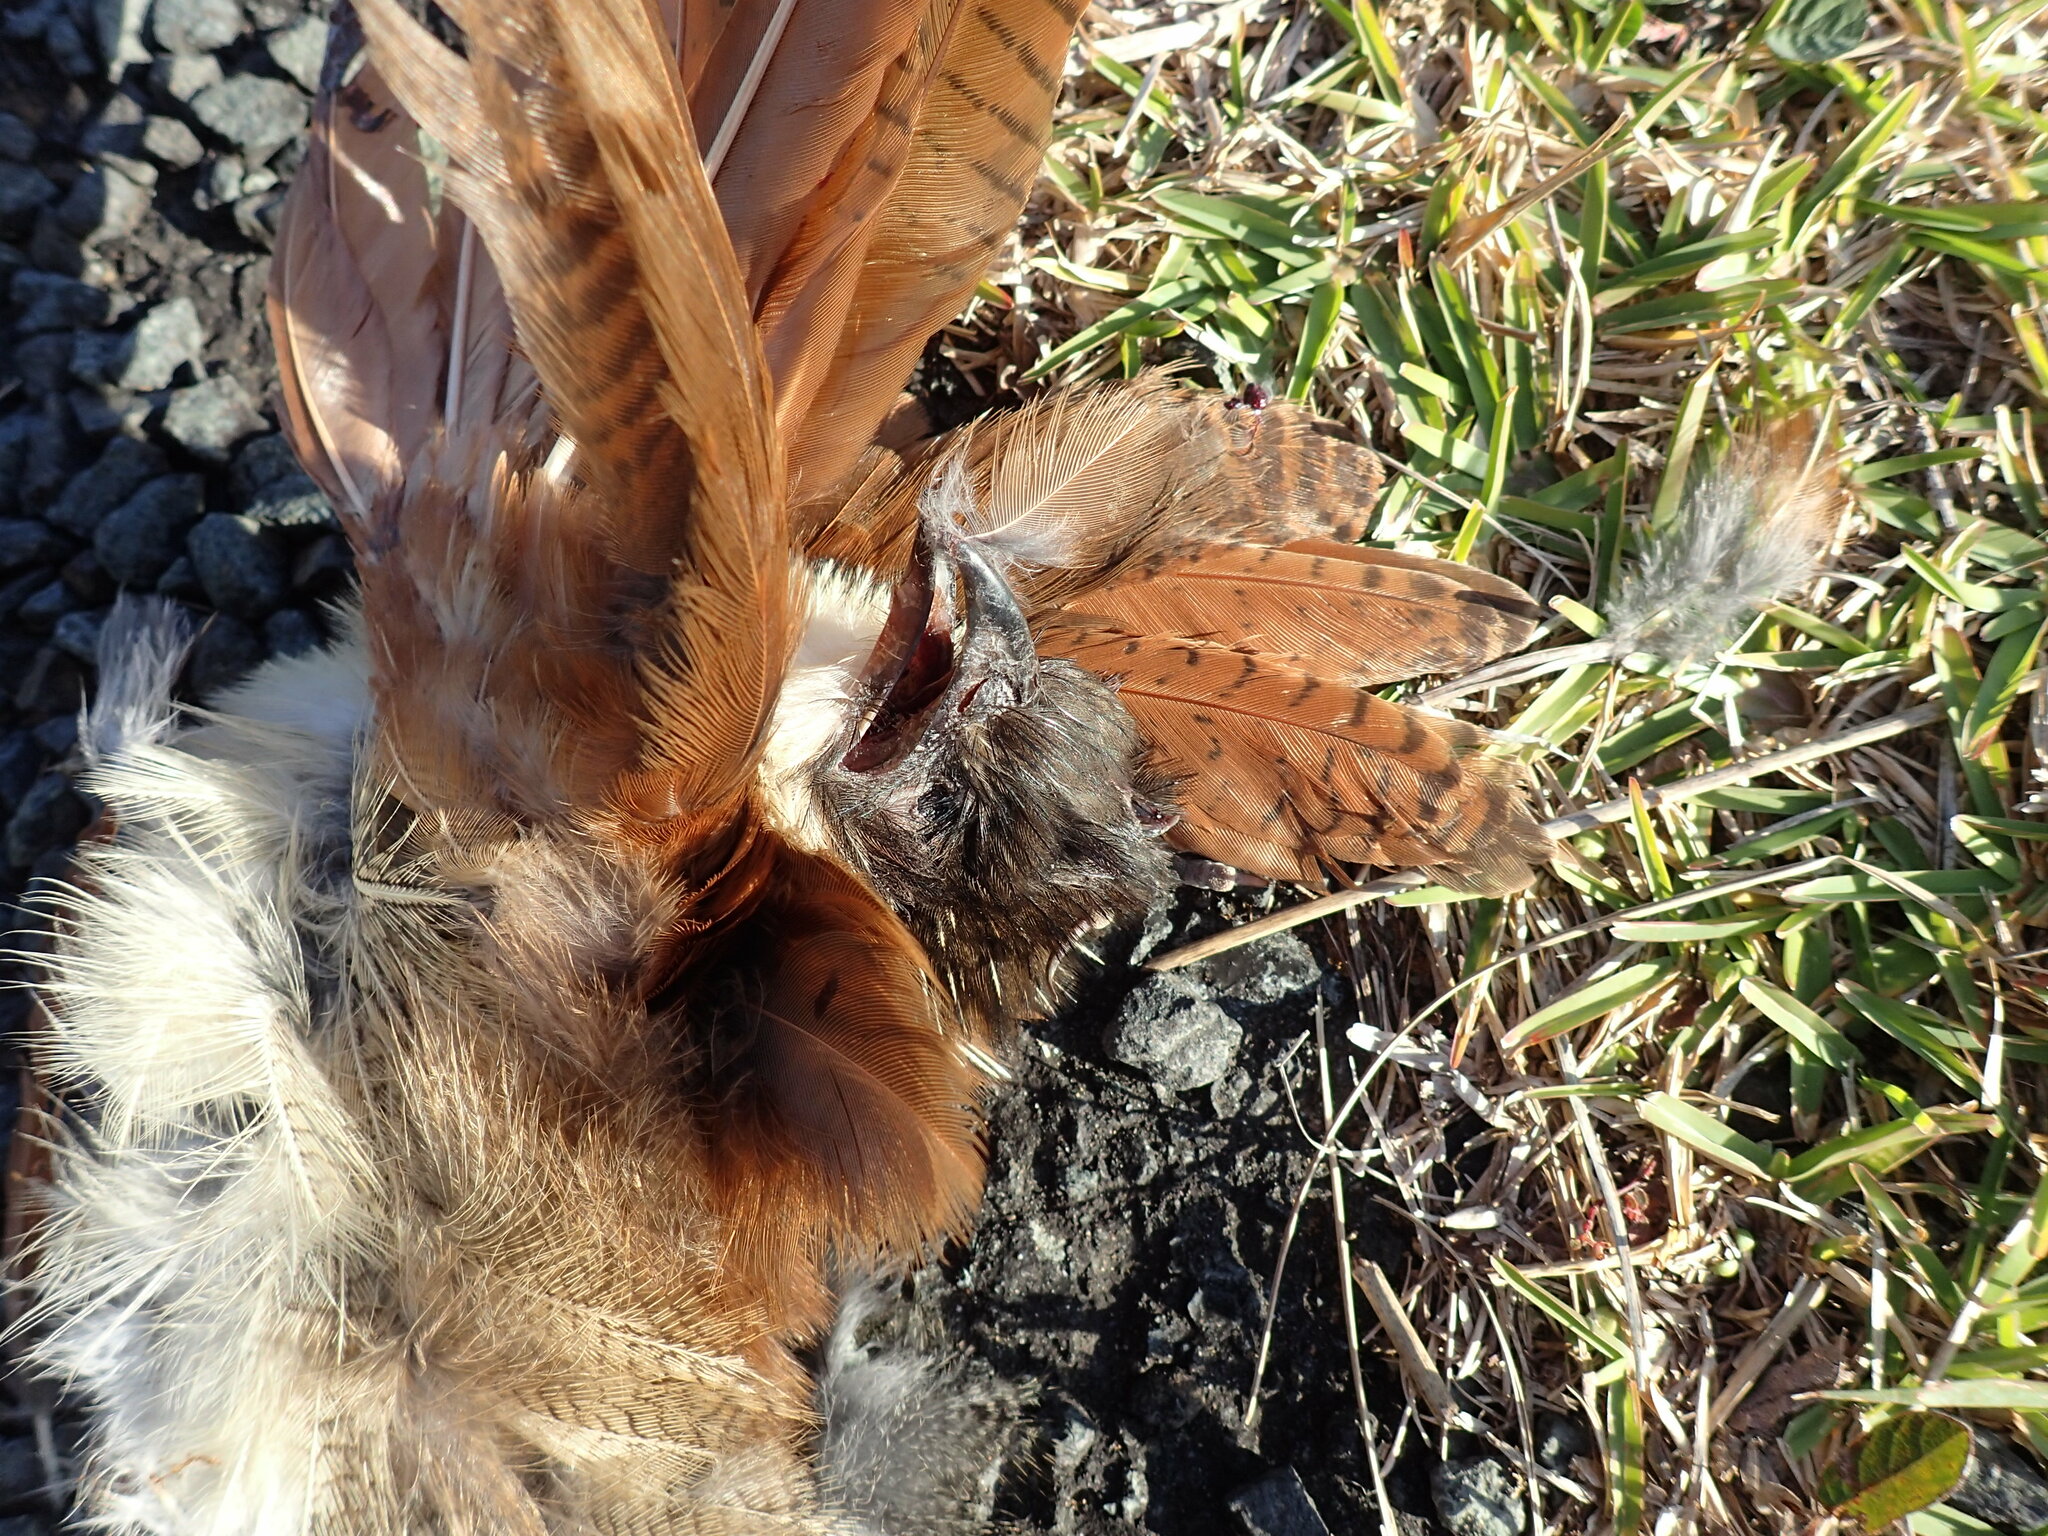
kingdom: Animalia
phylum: Chordata
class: Aves
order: Cuculiformes
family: Cuculidae
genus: Centropus
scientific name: Centropus superciliosus
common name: White-browed coucal
